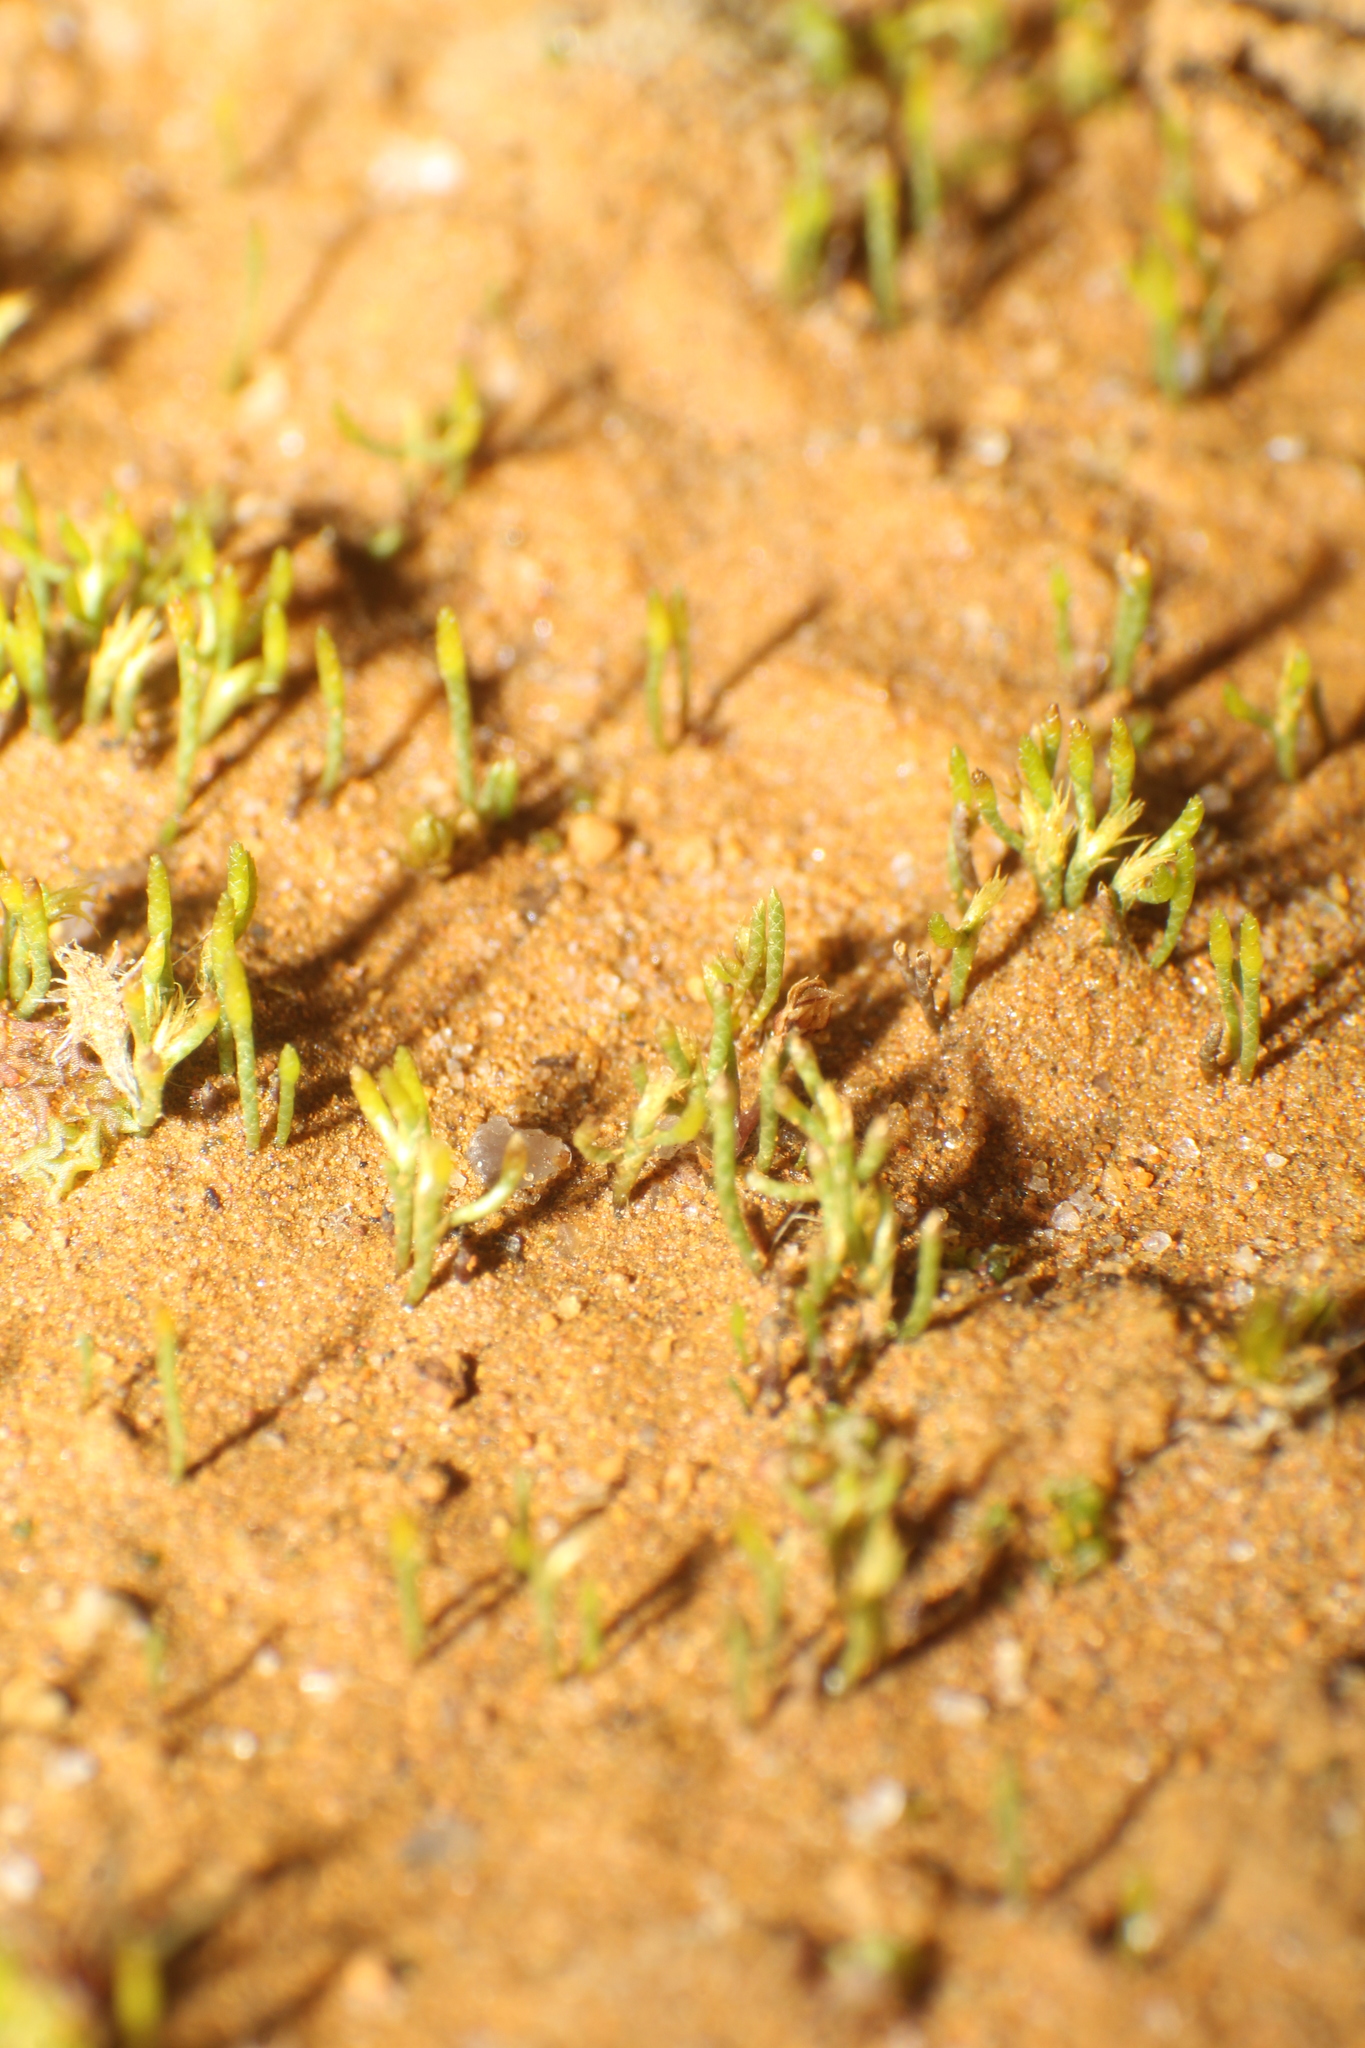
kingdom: Plantae
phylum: Bryophyta
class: Bryopsida
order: Dicranales
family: Dicranellaceae
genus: Eccremidium
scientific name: Eccremidium pulchellum
